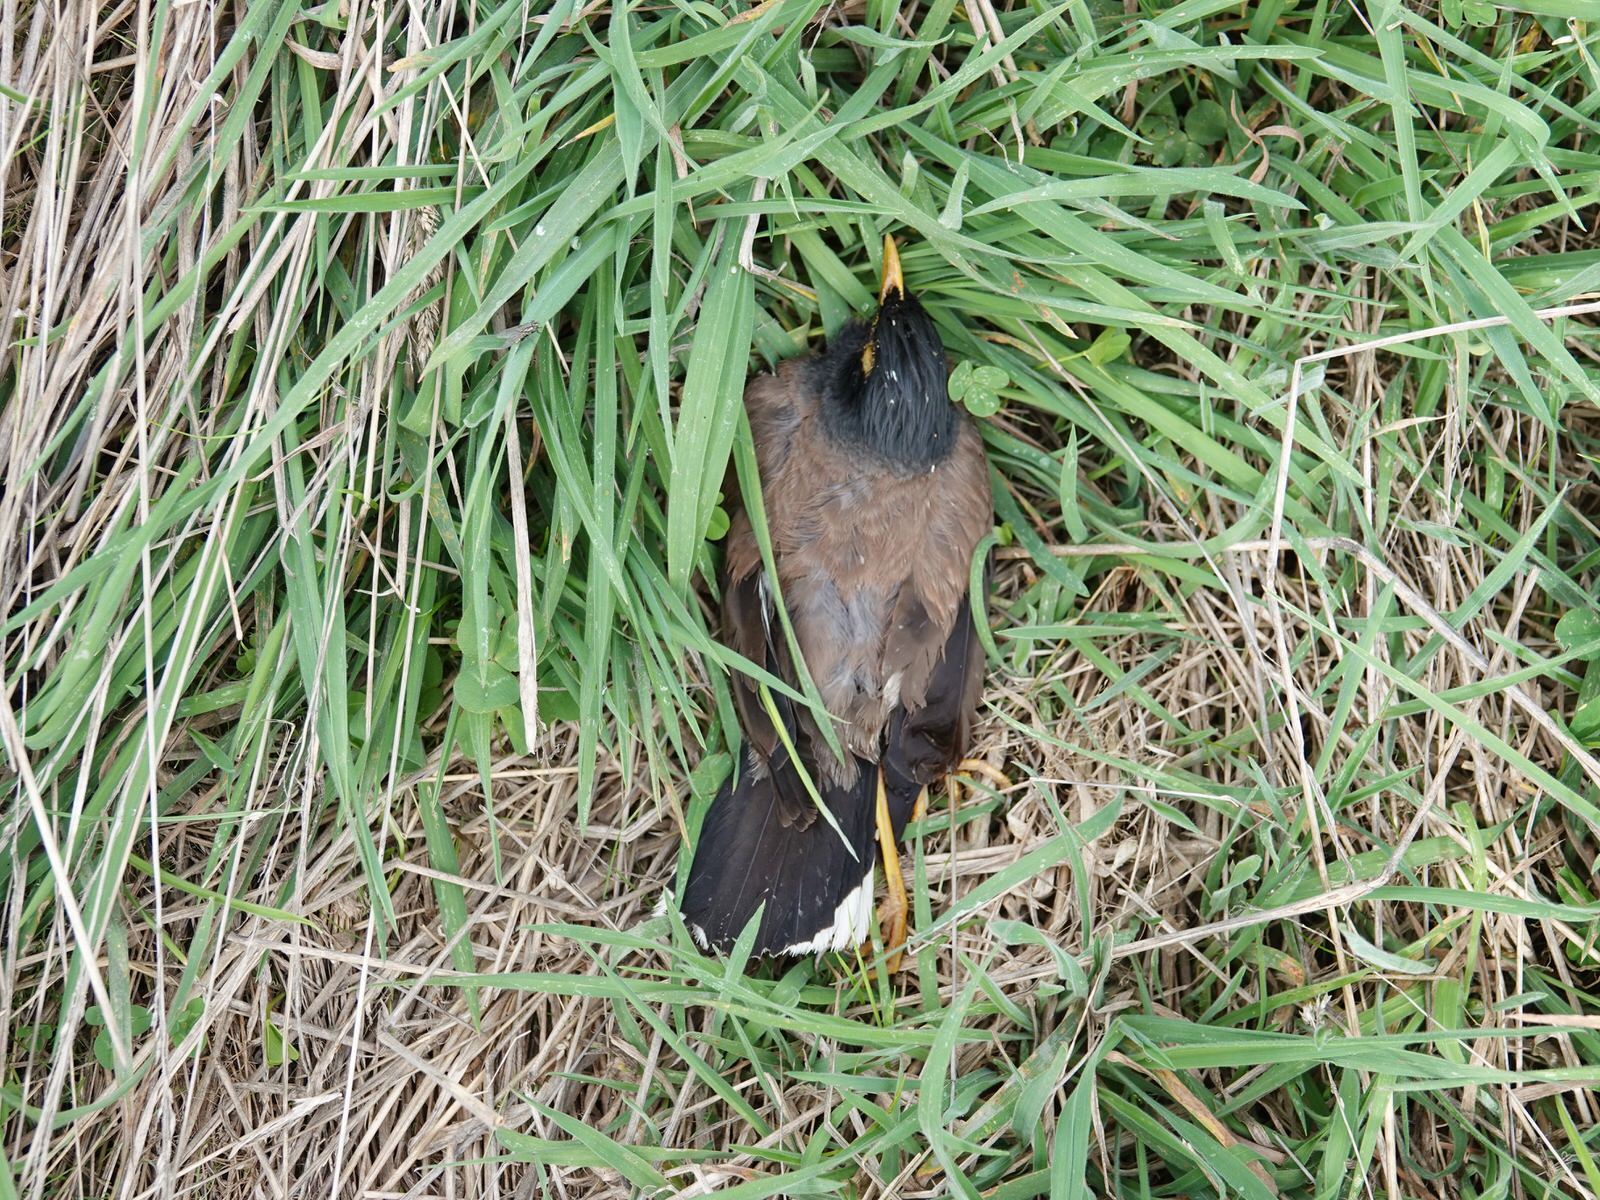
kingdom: Animalia
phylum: Chordata
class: Aves
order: Passeriformes
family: Sturnidae
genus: Acridotheres
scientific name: Acridotheres tristis
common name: Common myna
